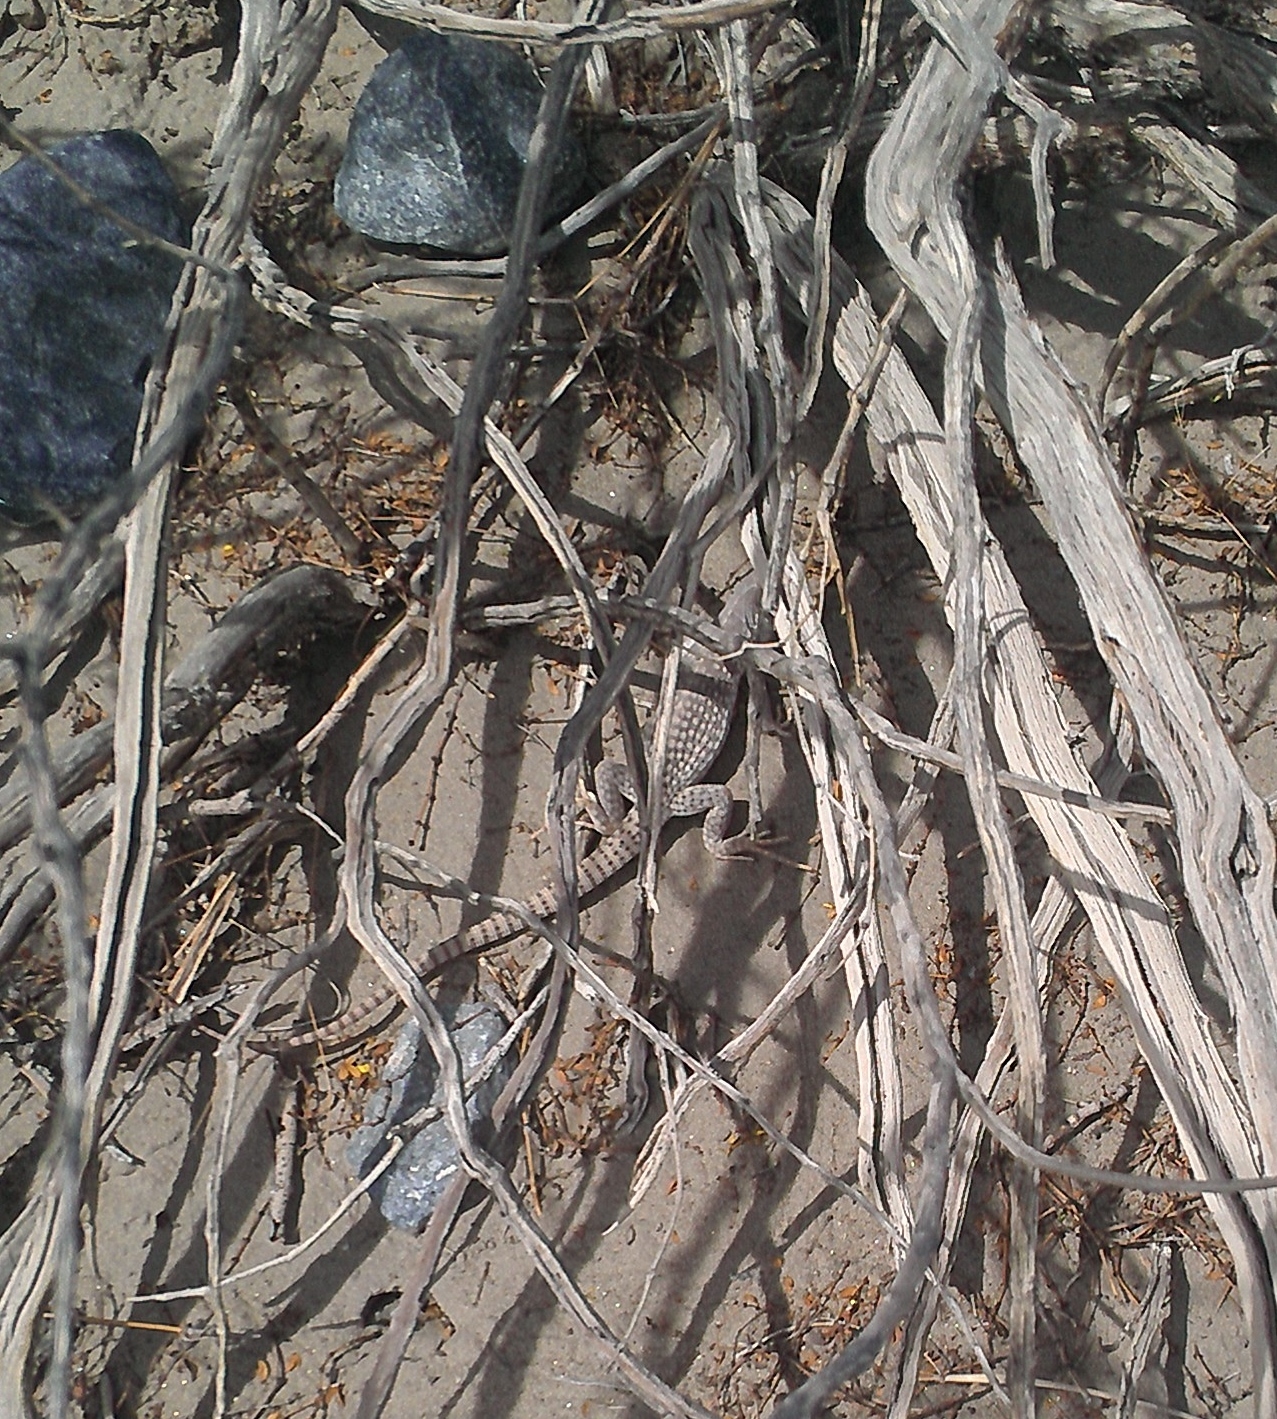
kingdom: Animalia
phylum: Chordata
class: Squamata
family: Iguanidae
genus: Dipsosaurus
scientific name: Dipsosaurus dorsalis
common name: Desert iguana
